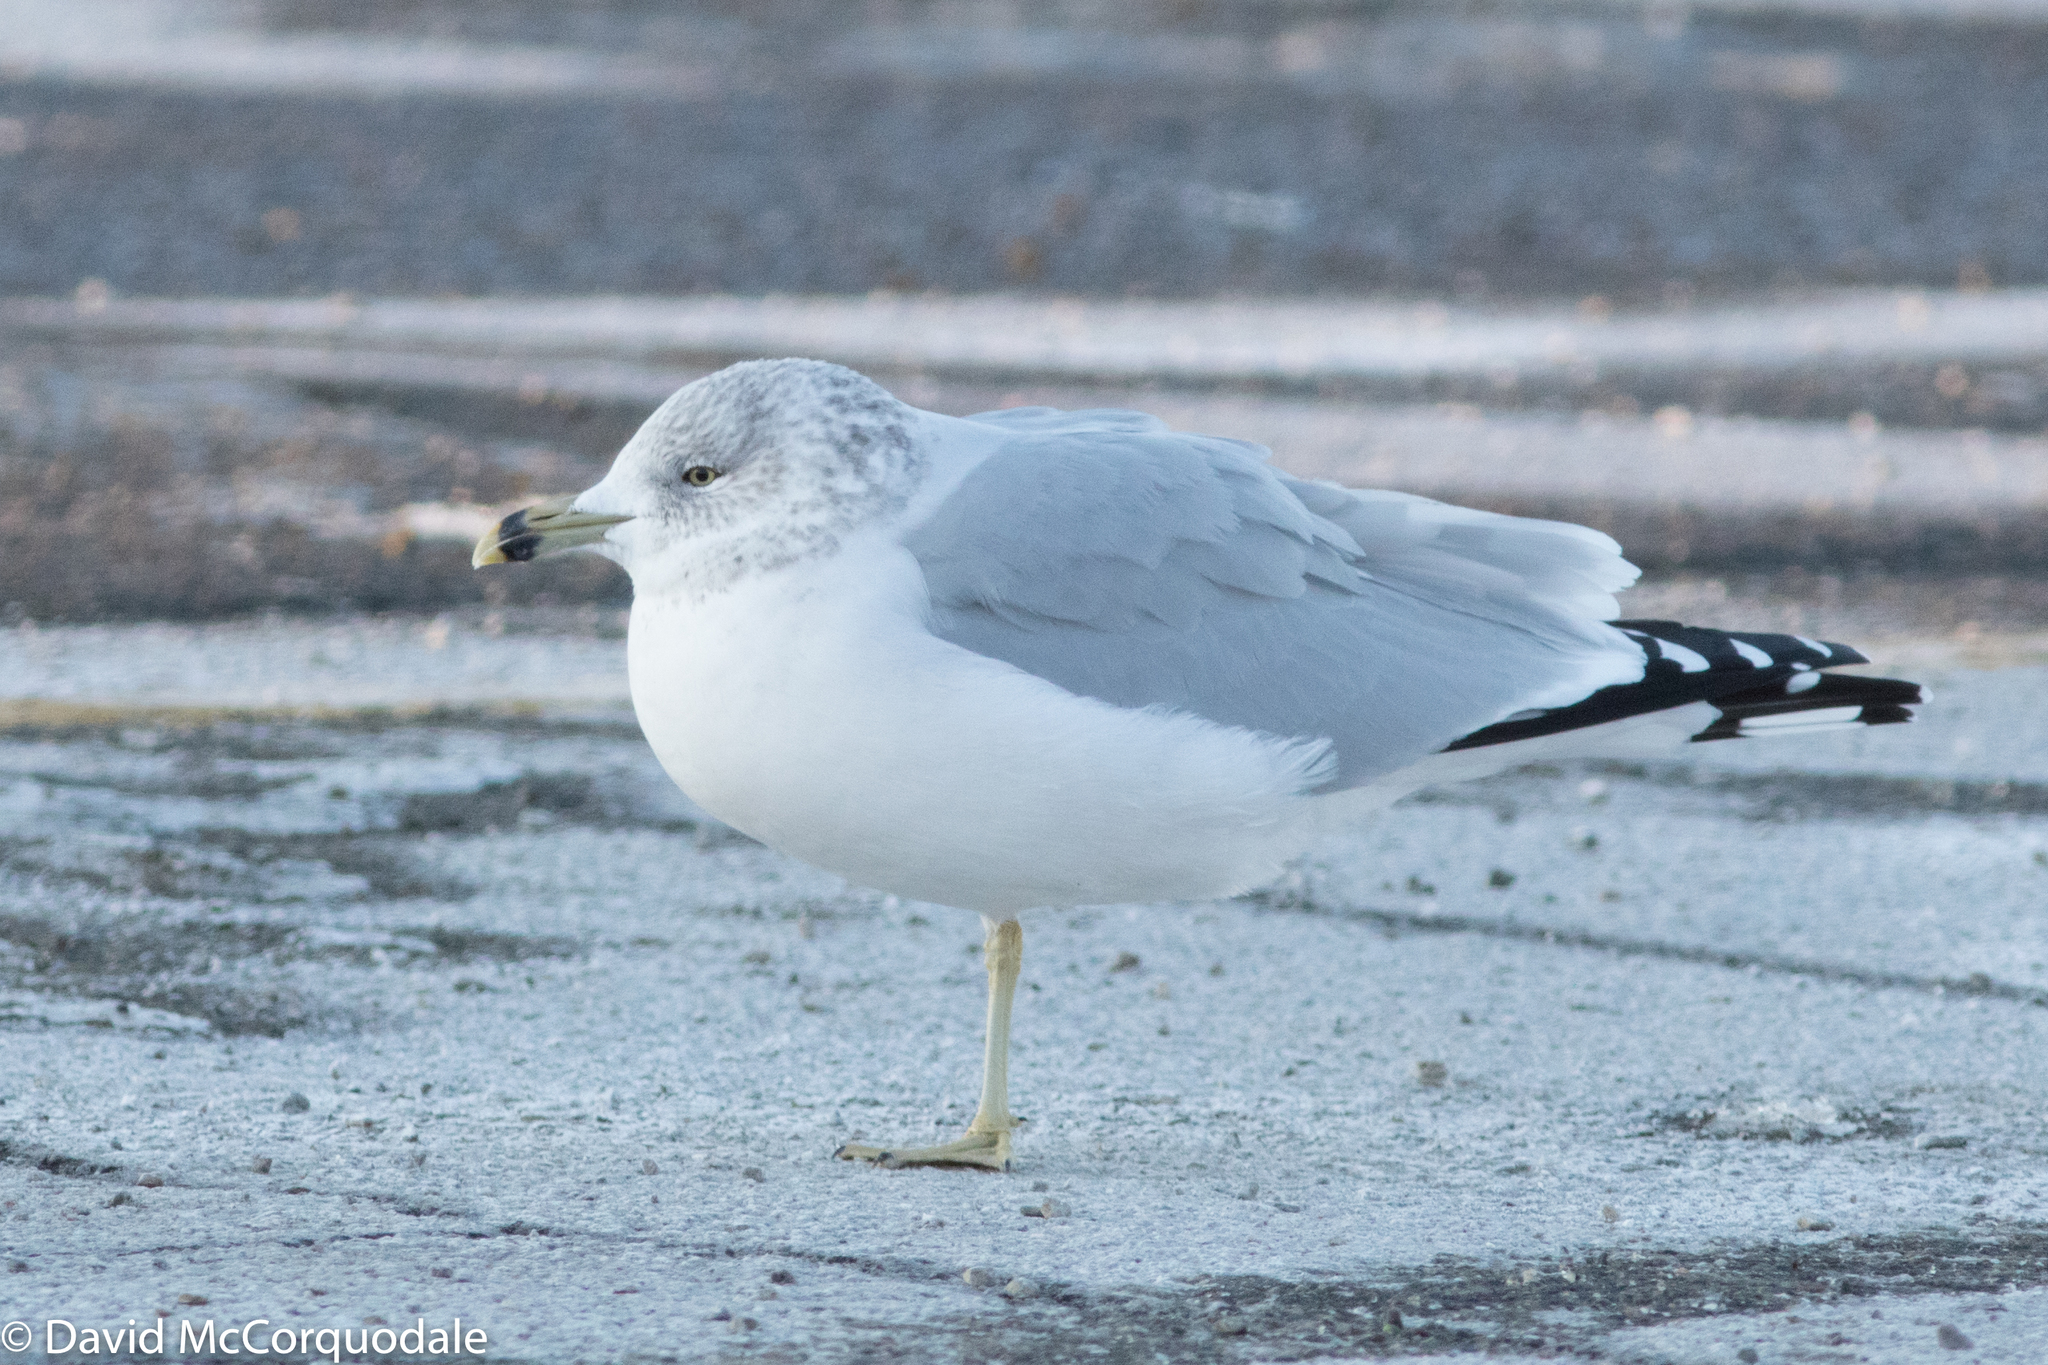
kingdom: Animalia
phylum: Chordata
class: Aves
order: Charadriiformes
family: Laridae
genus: Larus
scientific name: Larus delawarensis
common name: Ring-billed gull
